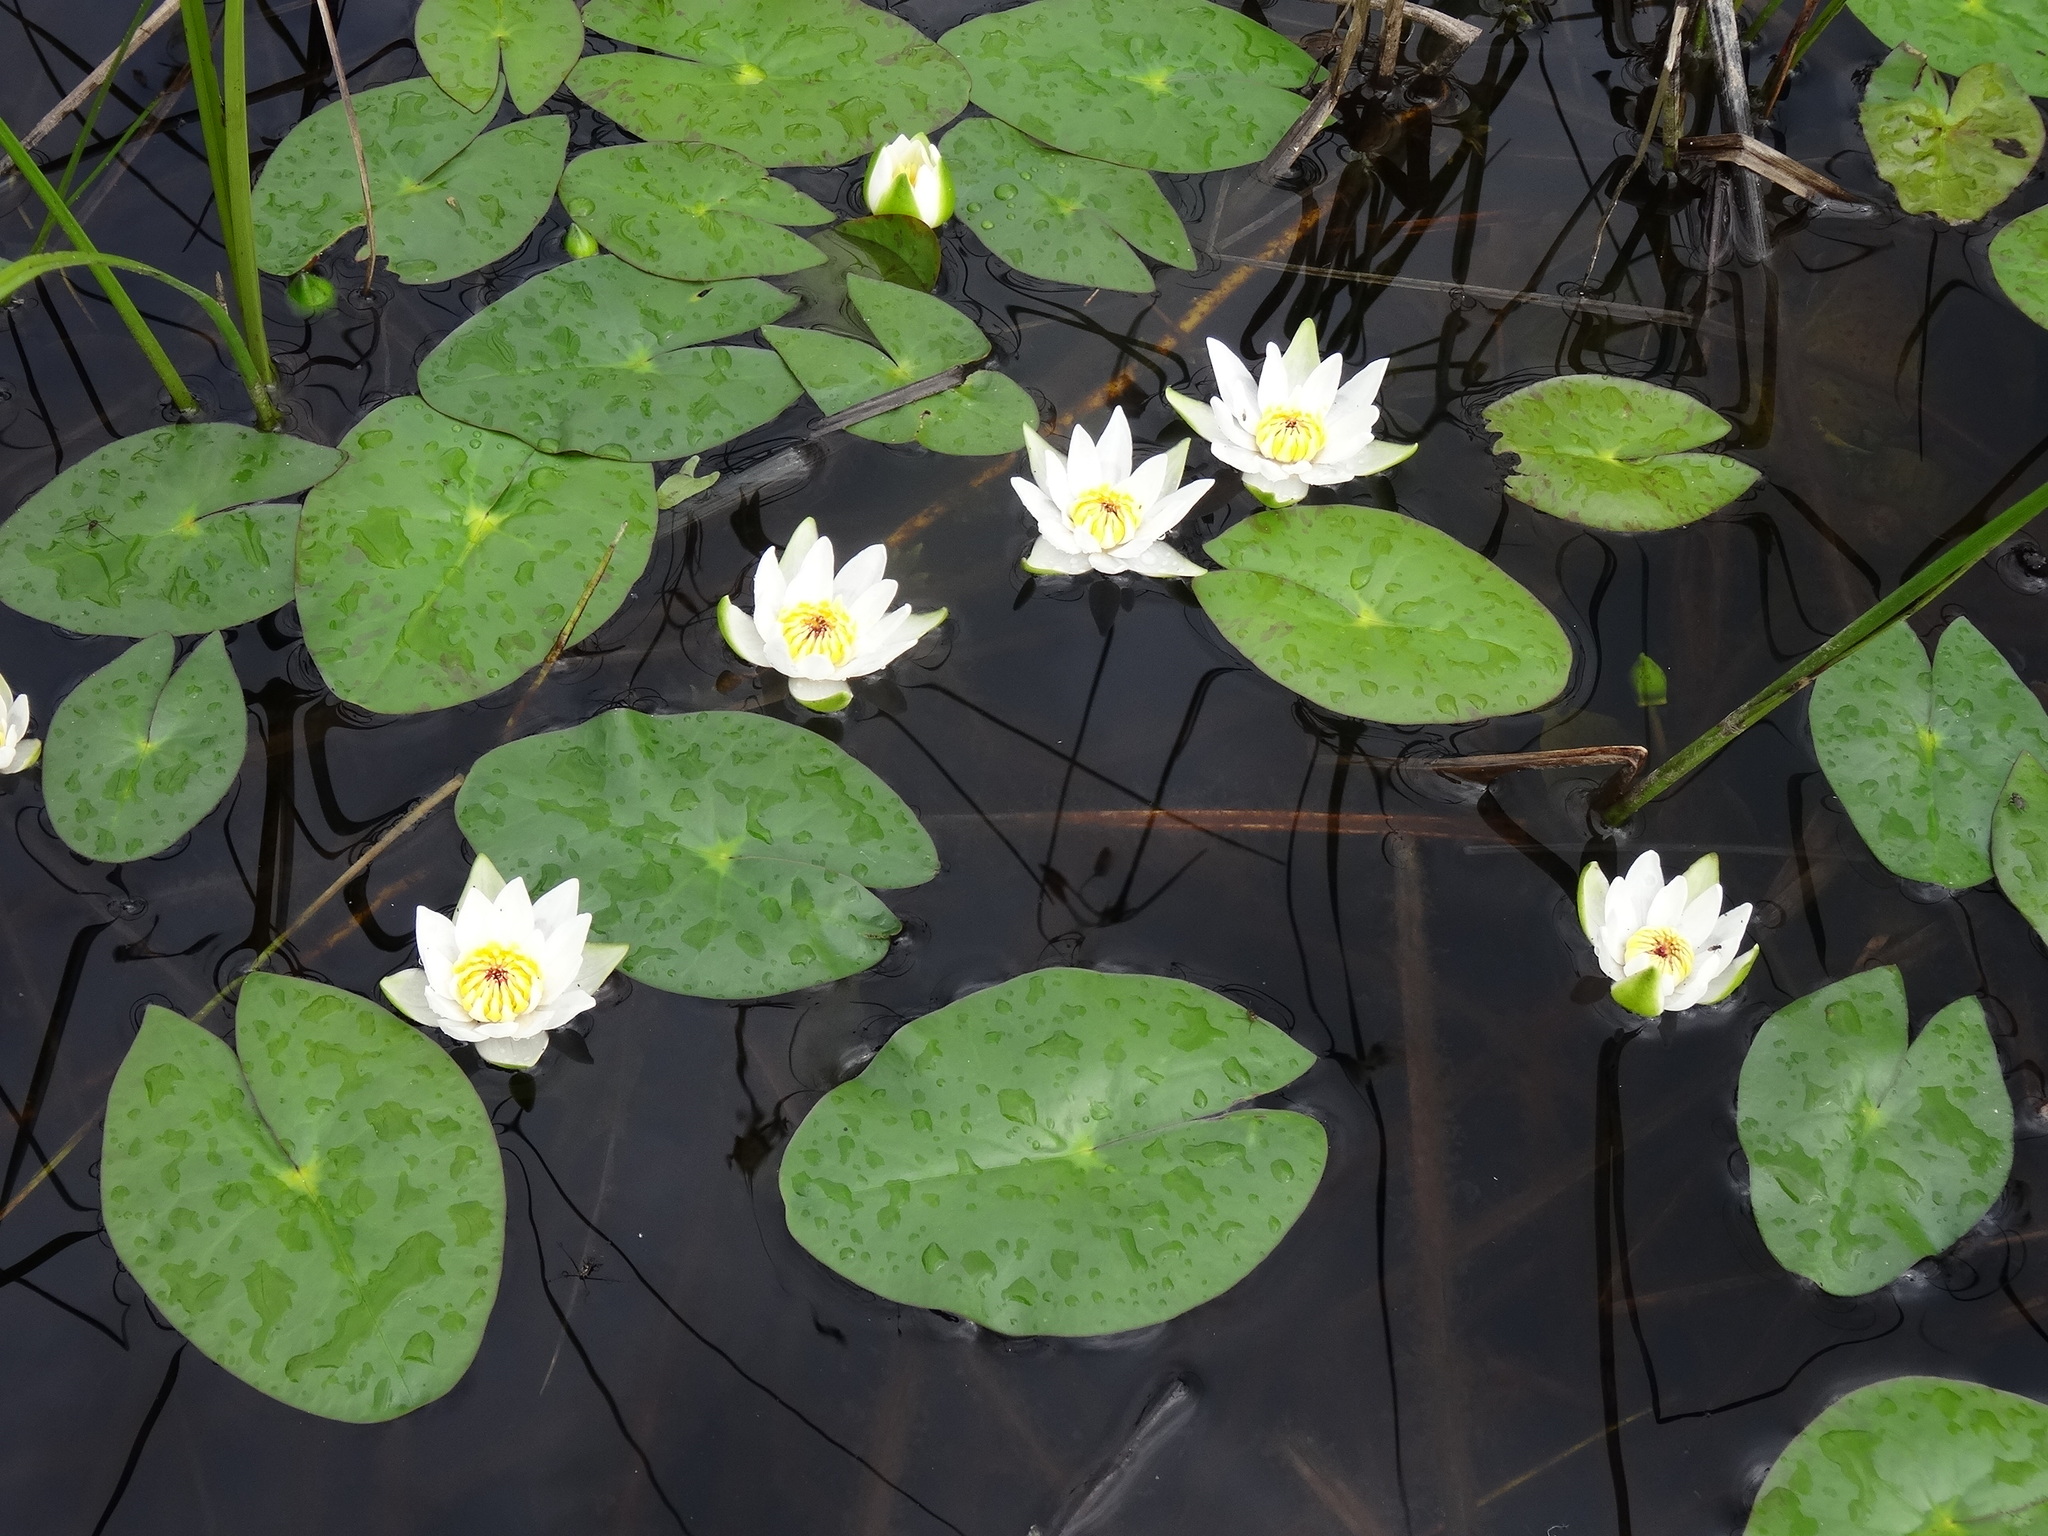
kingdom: Plantae
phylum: Tracheophyta
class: Magnoliopsida
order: Nymphaeales
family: Nymphaeaceae
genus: Nymphaea
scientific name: Nymphaea tetragona
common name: Pygmy water-lily
